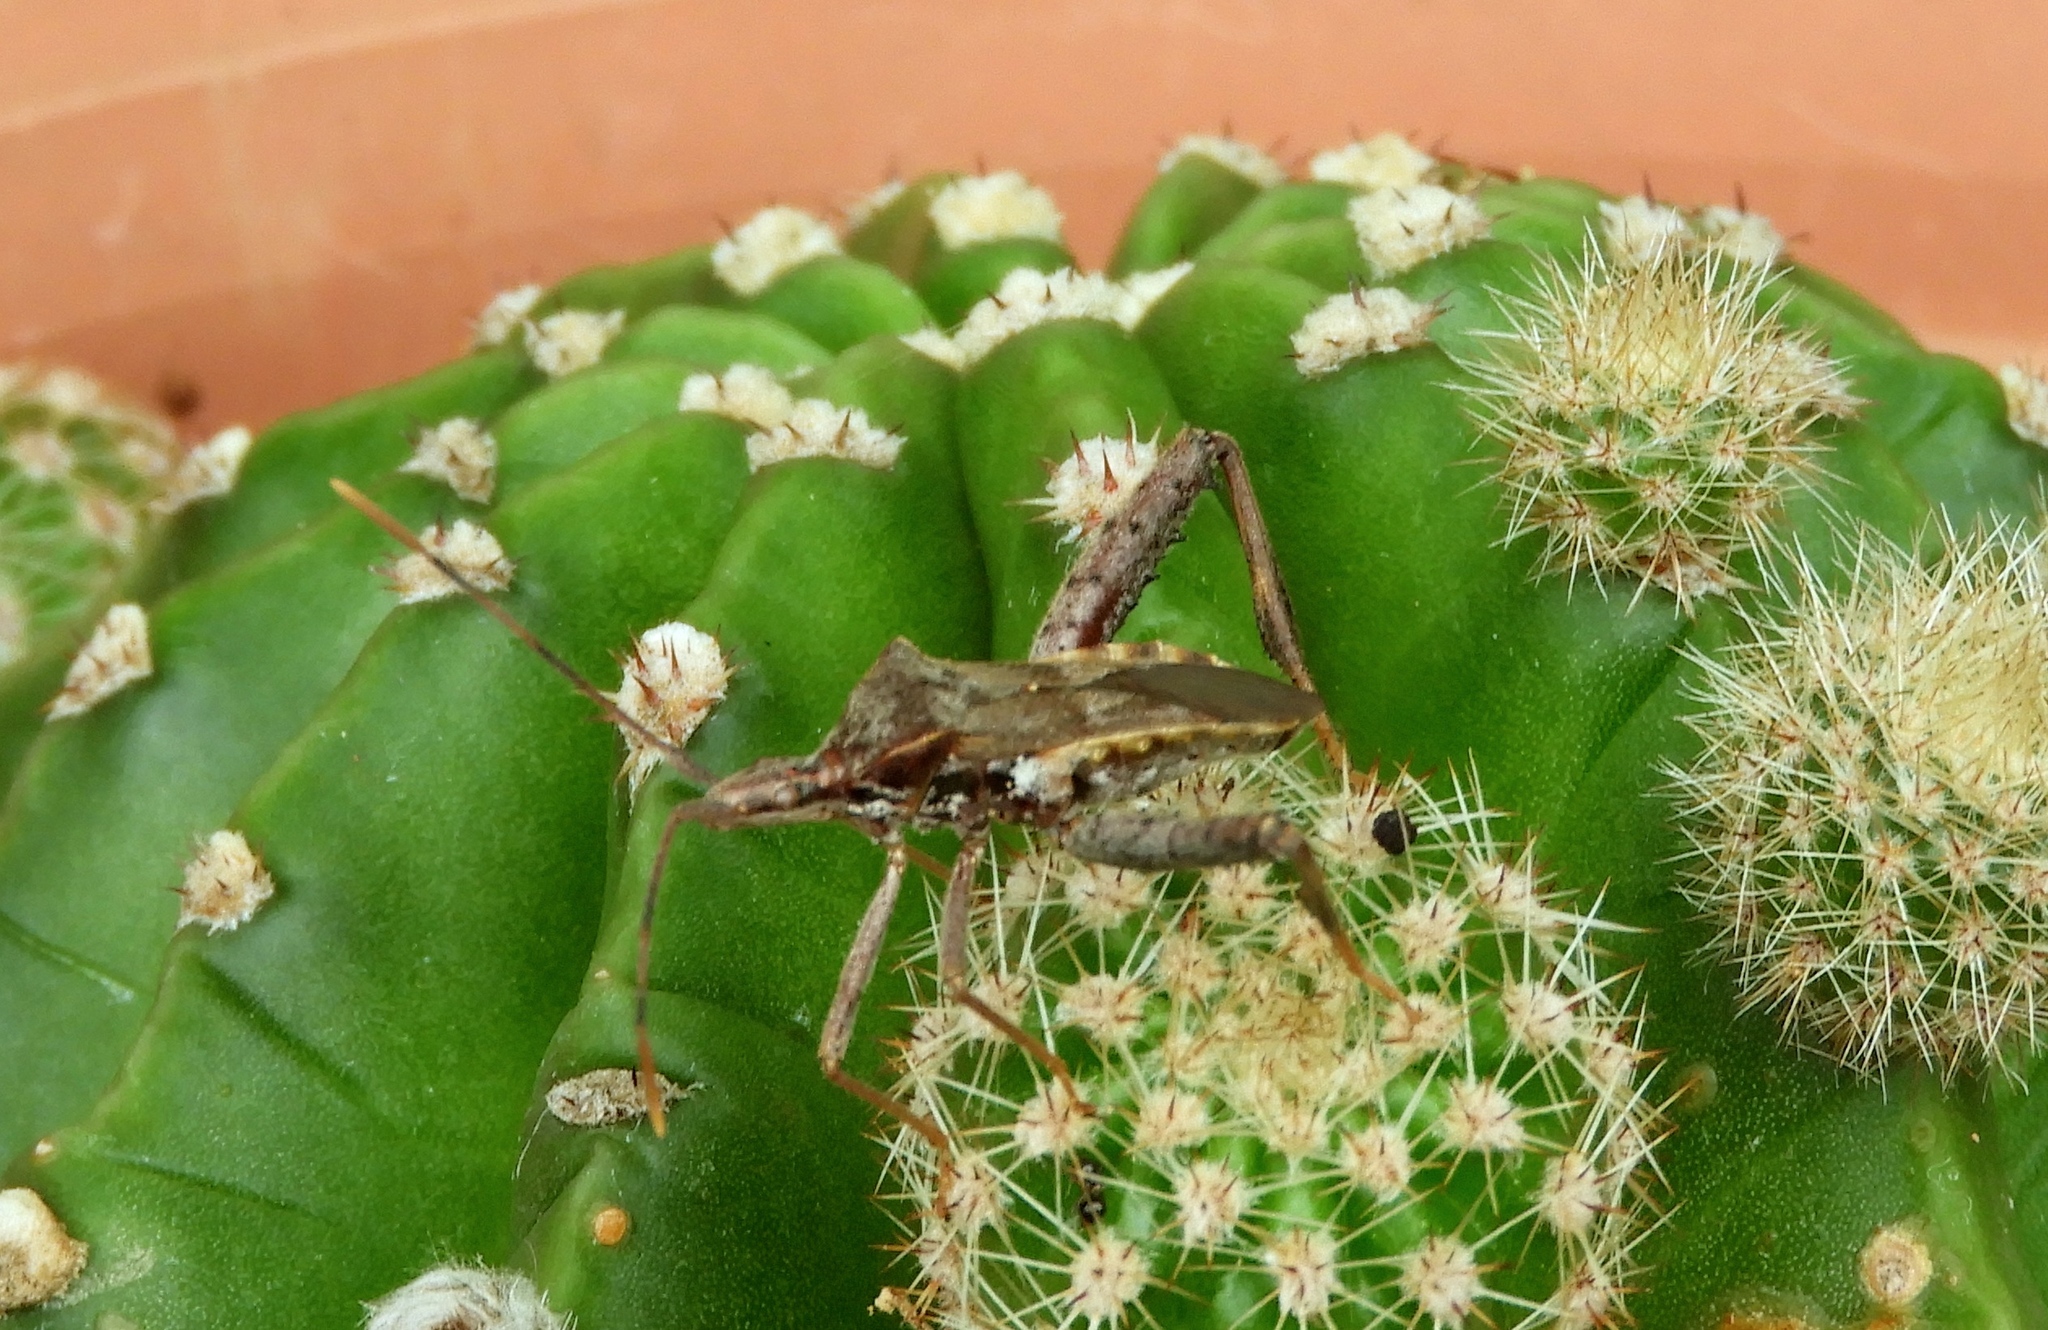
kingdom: Animalia
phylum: Arthropoda
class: Insecta
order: Hemiptera
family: Coreidae
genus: Narnia
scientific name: Narnia
